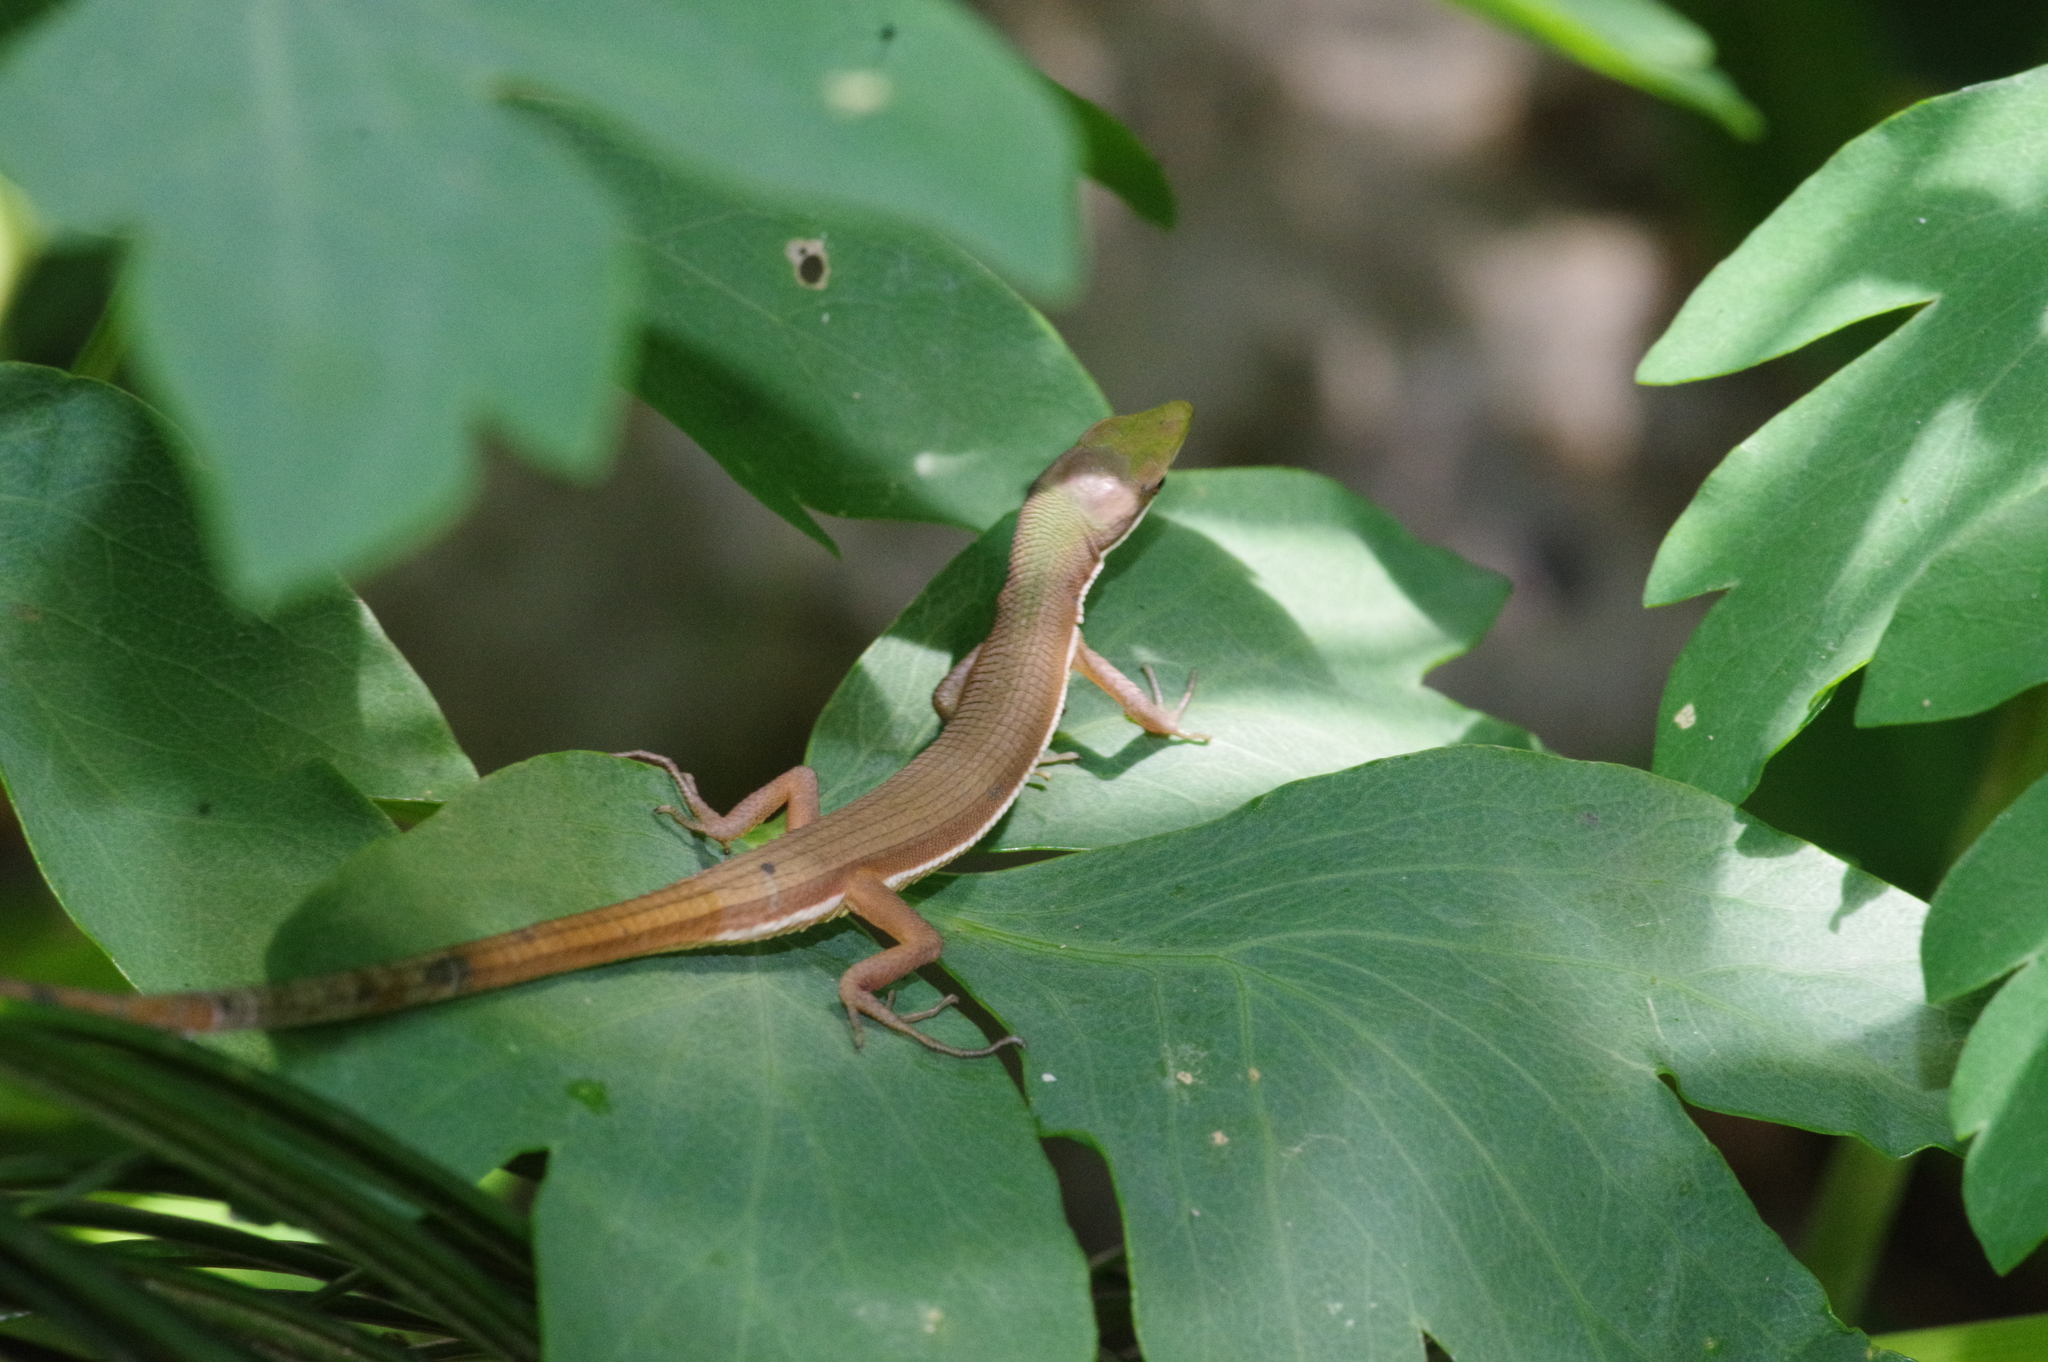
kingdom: Animalia
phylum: Chordata
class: Squamata
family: Lacertidae
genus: Takydromus
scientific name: Takydromus smaragdinus
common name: Green grass lizard
